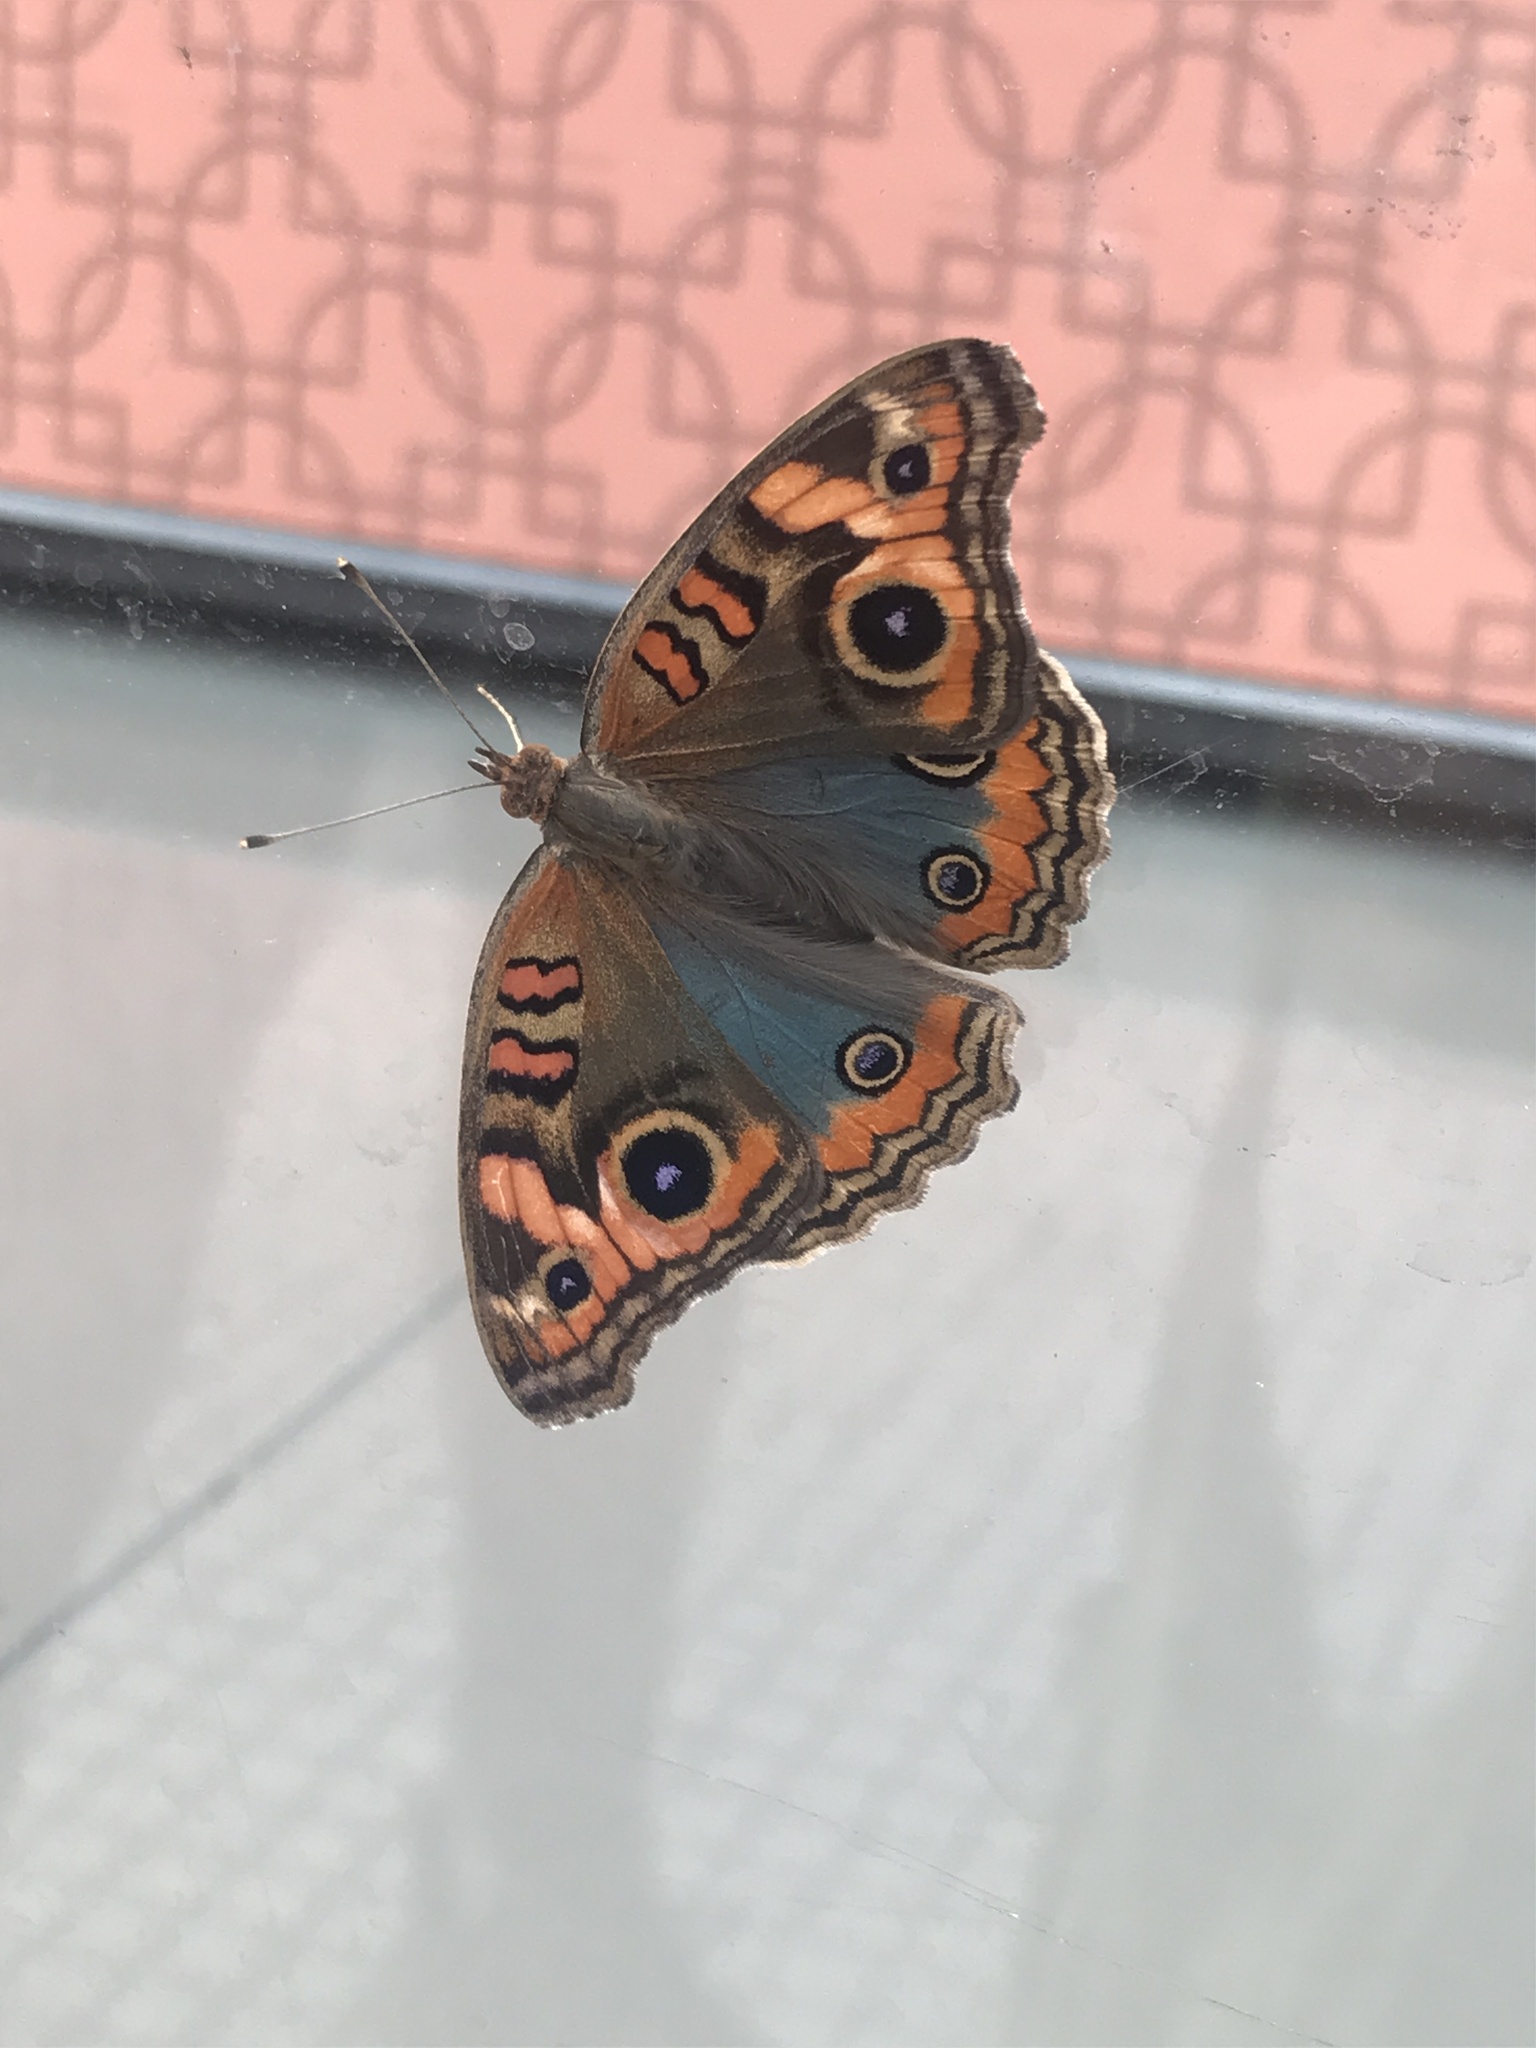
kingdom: Animalia
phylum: Arthropoda
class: Insecta
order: Lepidoptera
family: Nymphalidae
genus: Junonia
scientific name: Junonia lavinia
